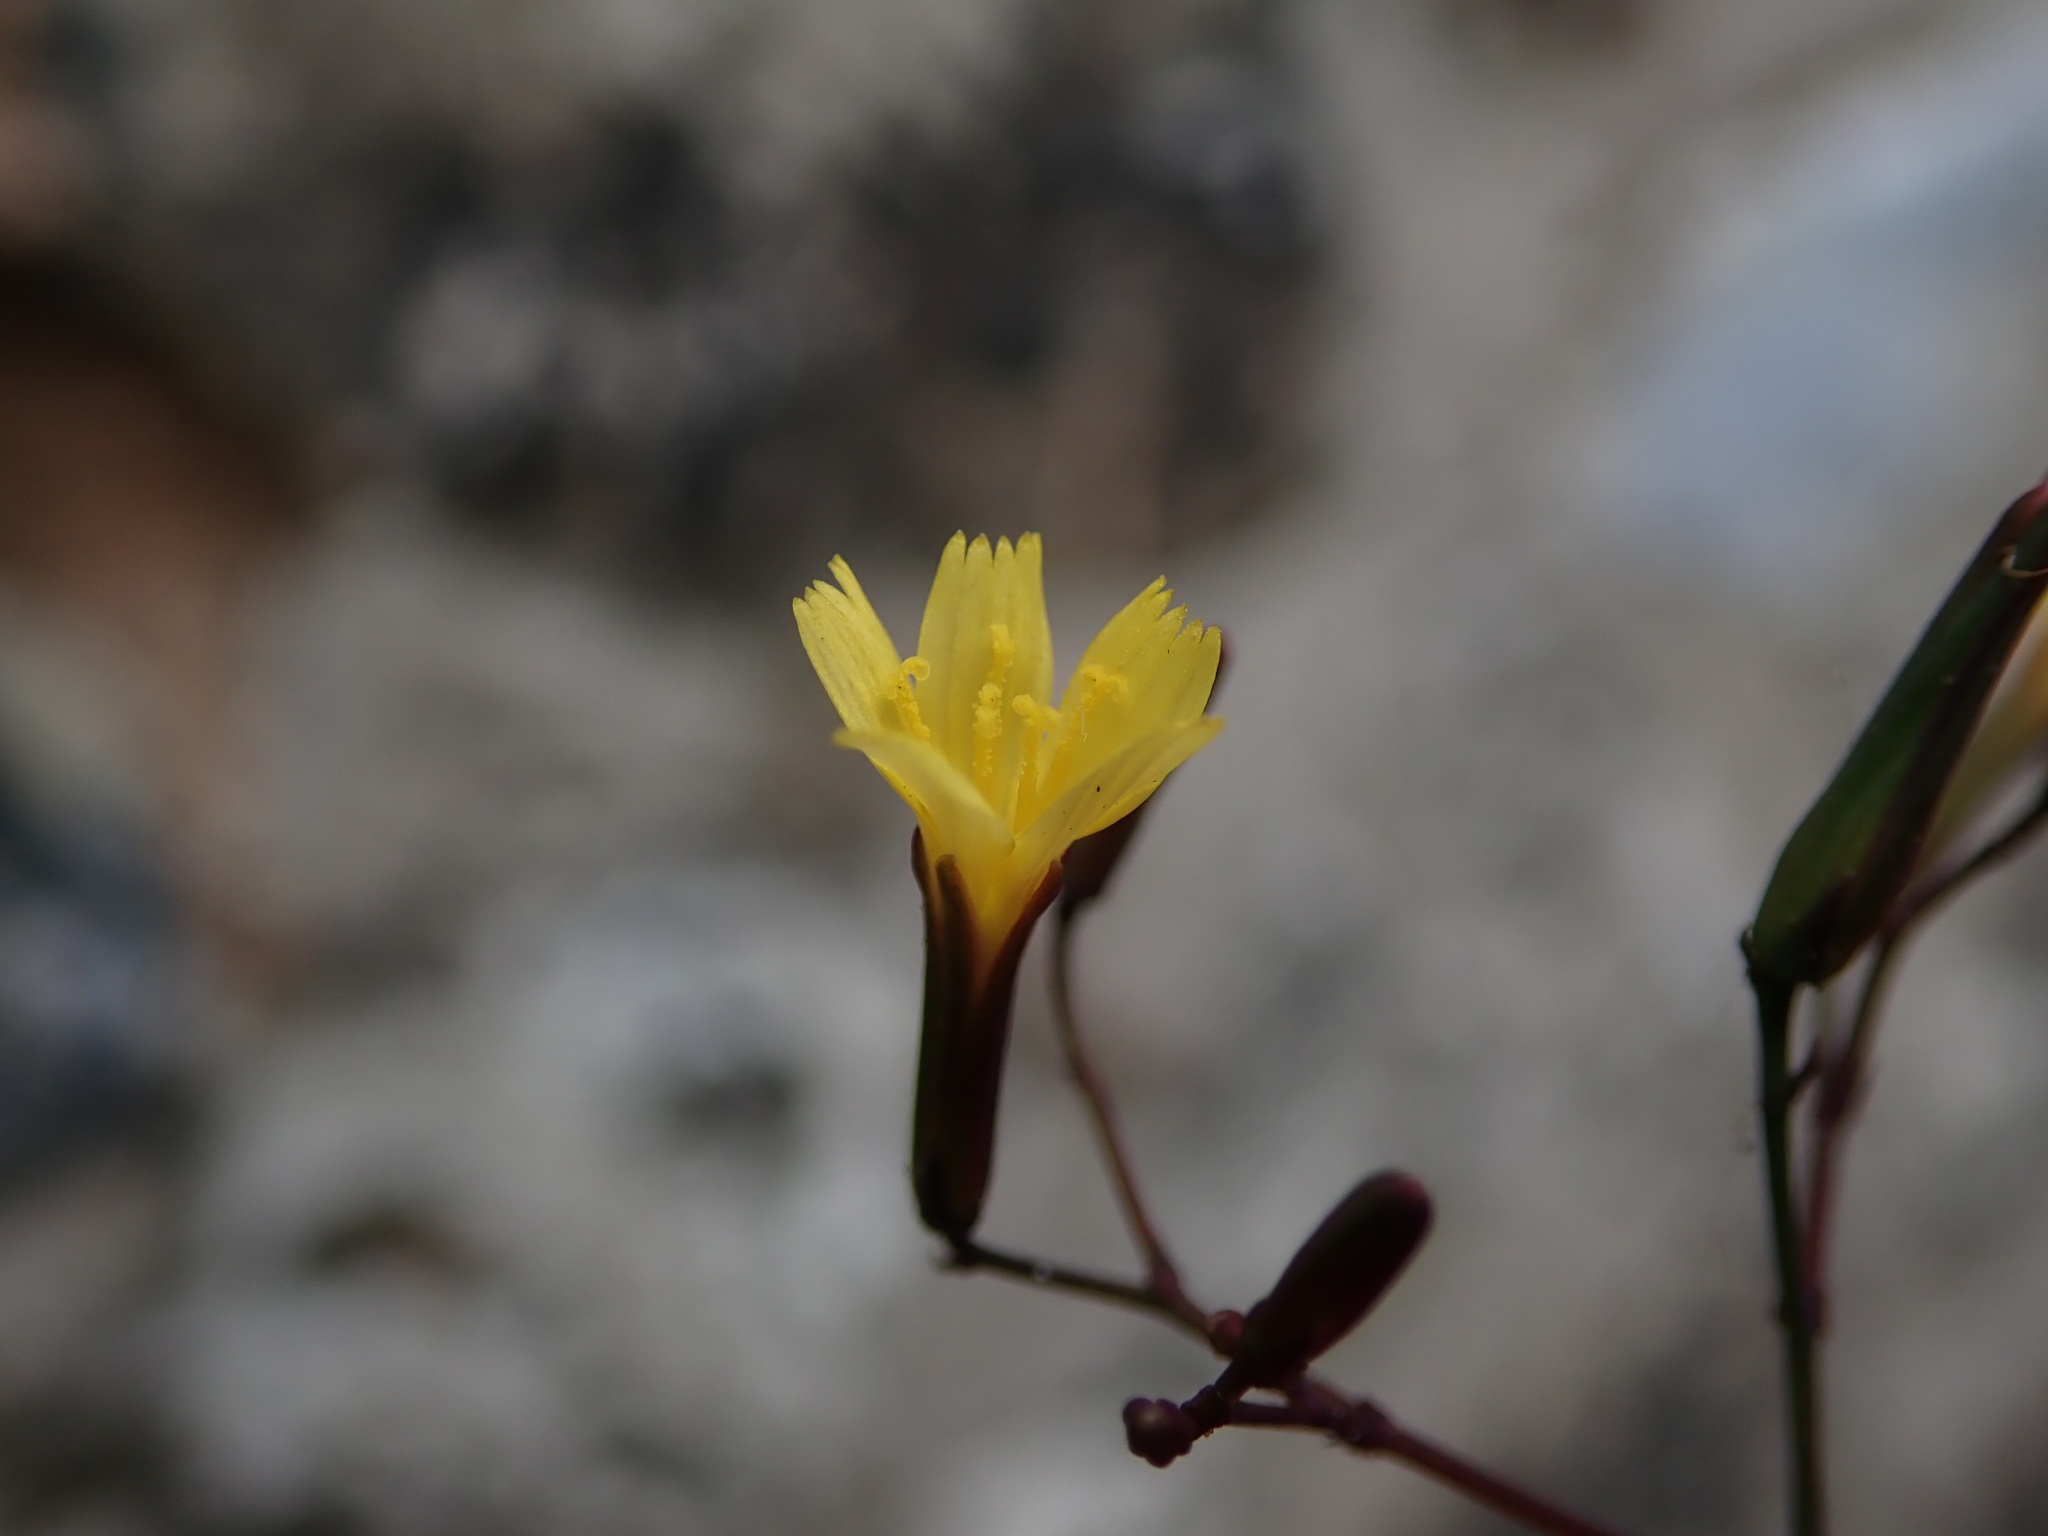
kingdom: Plantae
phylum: Tracheophyta
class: Magnoliopsida
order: Asterales
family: Asteraceae
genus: Mycelis
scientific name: Mycelis muralis
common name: Wall lettuce
